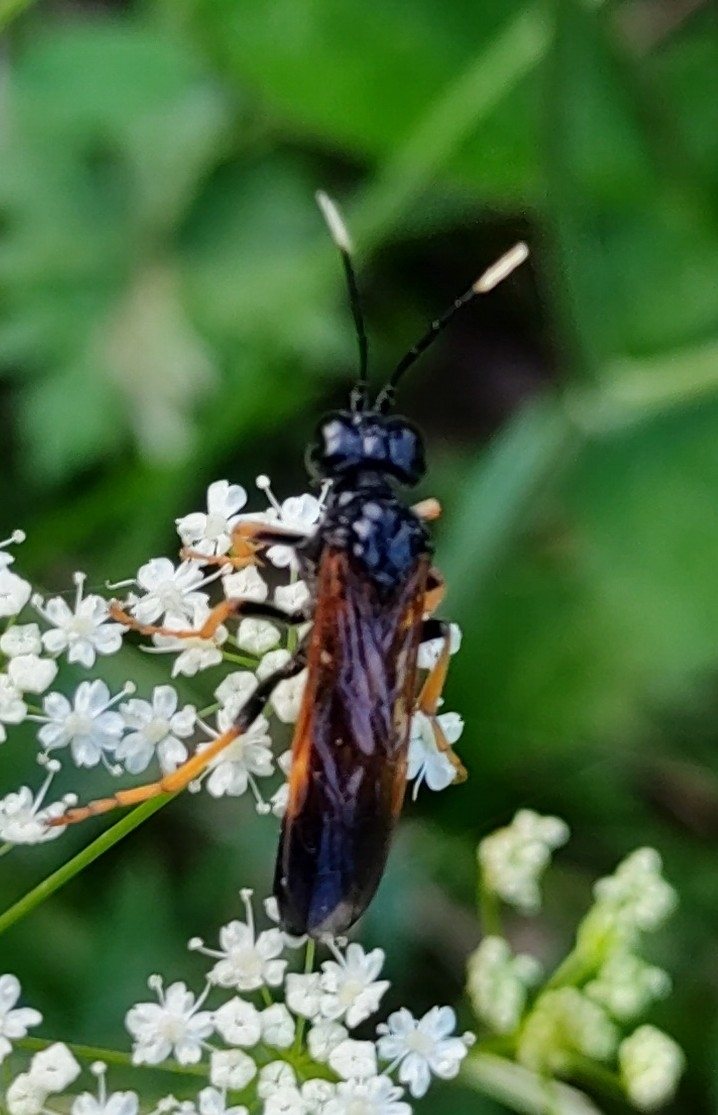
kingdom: Animalia
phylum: Arthropoda
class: Insecta
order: Hymenoptera
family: Tenthredinidae
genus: Tenthredo
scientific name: Tenthredo crassa
